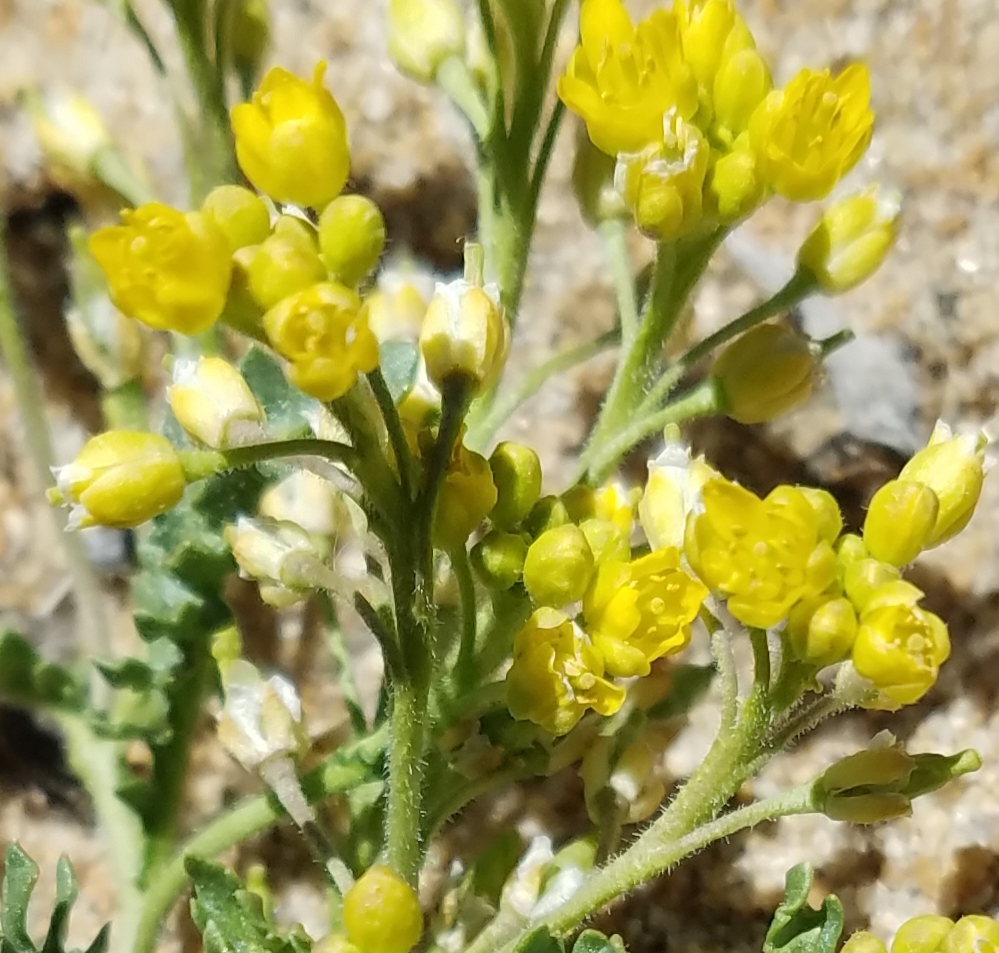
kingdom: Plantae
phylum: Tracheophyta
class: Magnoliopsida
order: Brassicales
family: Brassicaceae
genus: Rorippa
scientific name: Rorippa subumbellata
